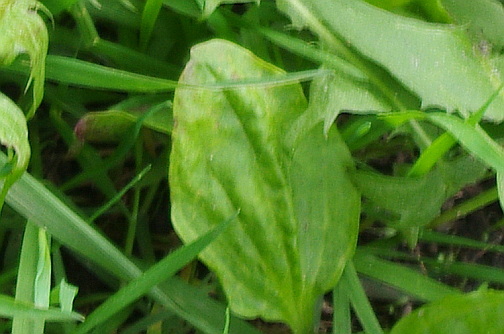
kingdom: Plantae
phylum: Tracheophyta
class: Magnoliopsida
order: Lamiales
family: Plantaginaceae
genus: Plantago
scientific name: Plantago major
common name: Common plantain
